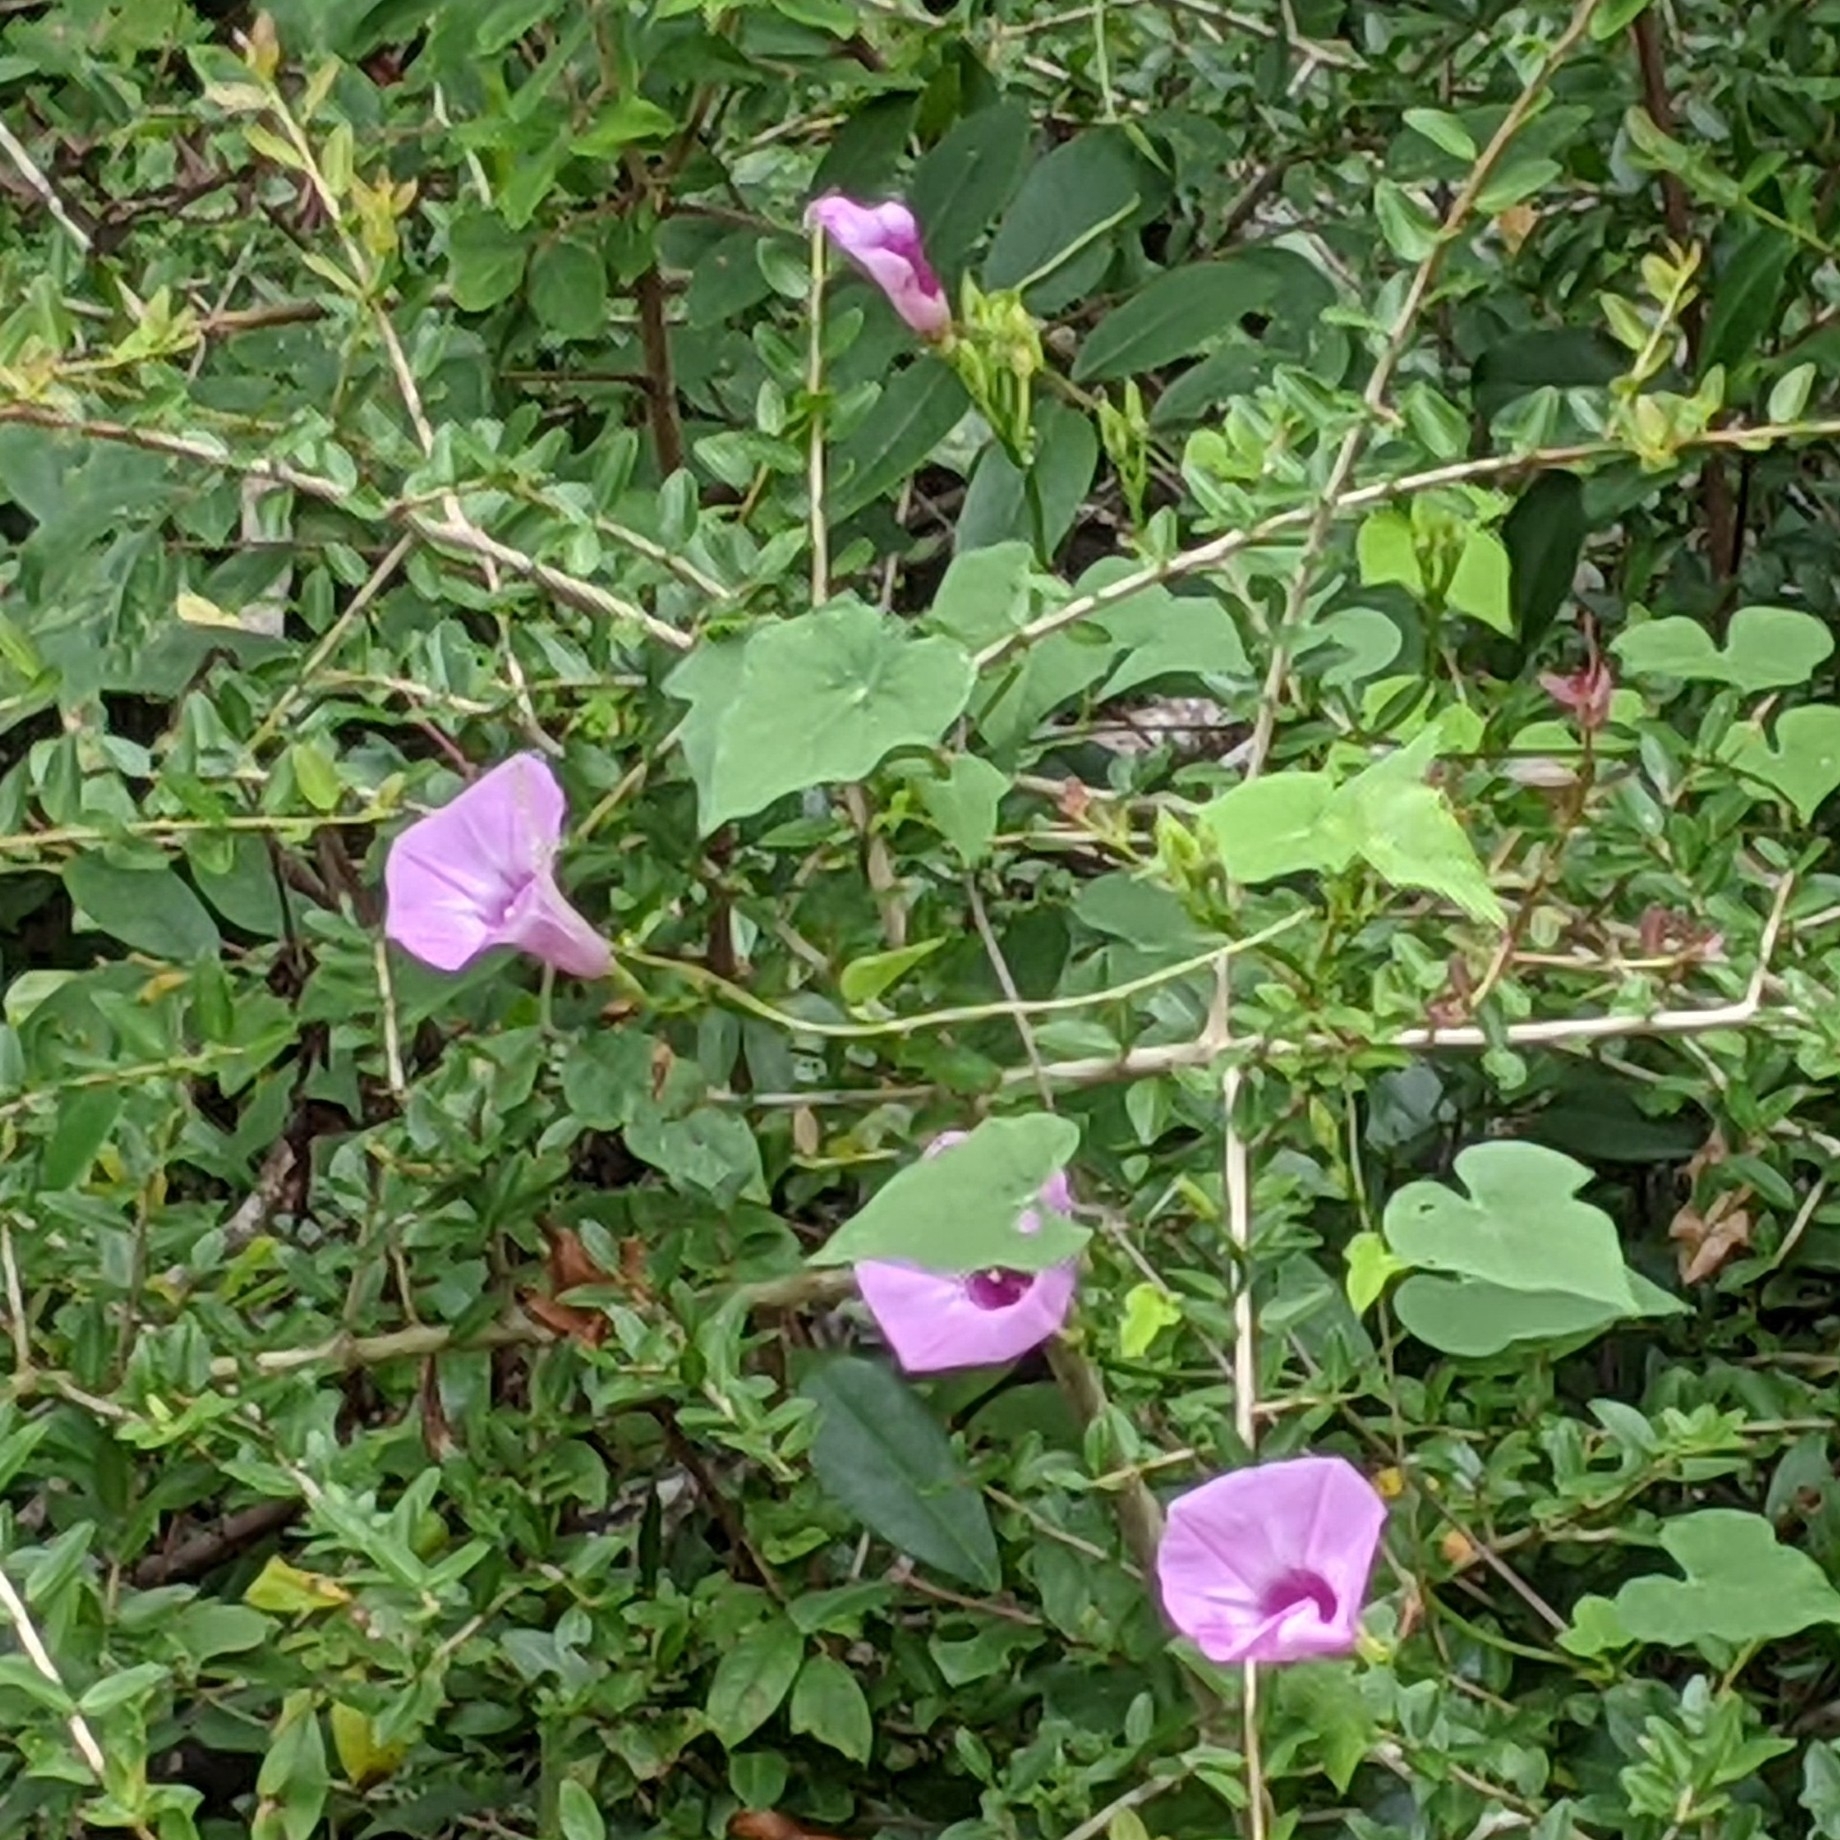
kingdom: Plantae
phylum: Tracheophyta
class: Magnoliopsida
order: Solanales
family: Convolvulaceae
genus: Ipomoea
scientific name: Ipomoea cordatotriloba
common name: Cotton morning glory
